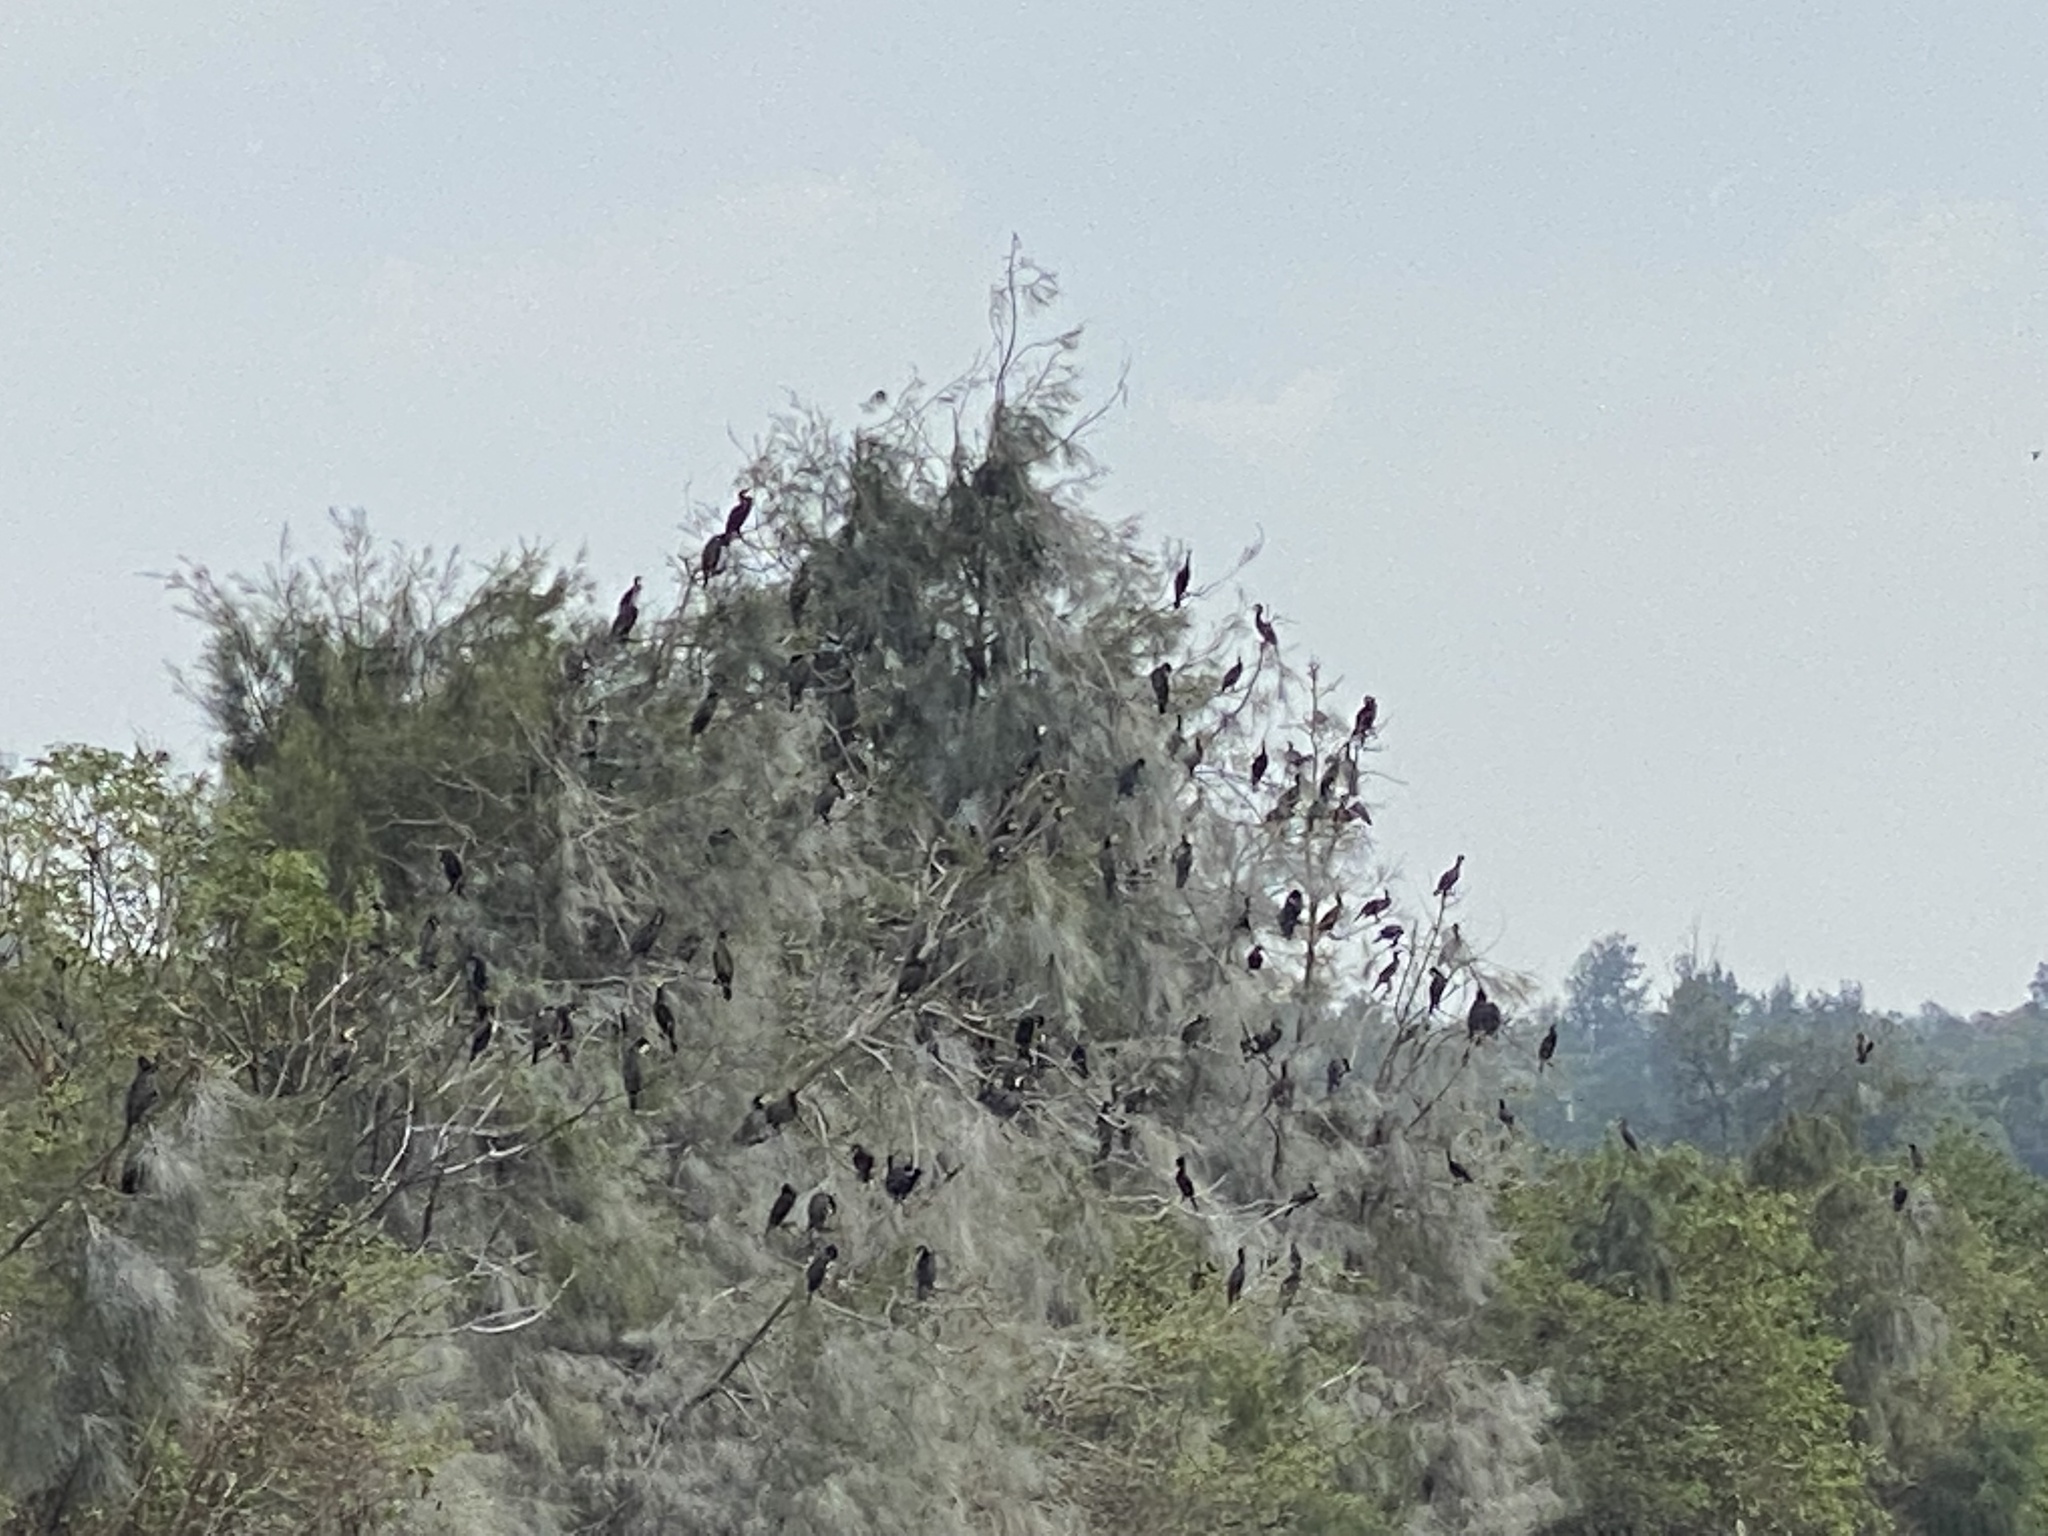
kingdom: Animalia
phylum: Chordata
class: Aves
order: Suliformes
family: Phalacrocoracidae
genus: Phalacrocorax
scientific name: Phalacrocorax carbo
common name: Great cormorant
